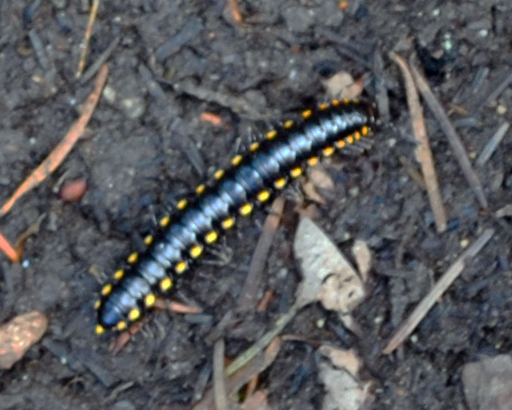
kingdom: Animalia
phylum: Arthropoda
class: Diplopoda
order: Polydesmida
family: Xystodesmidae
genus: Harpaphe
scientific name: Harpaphe haydeniana
